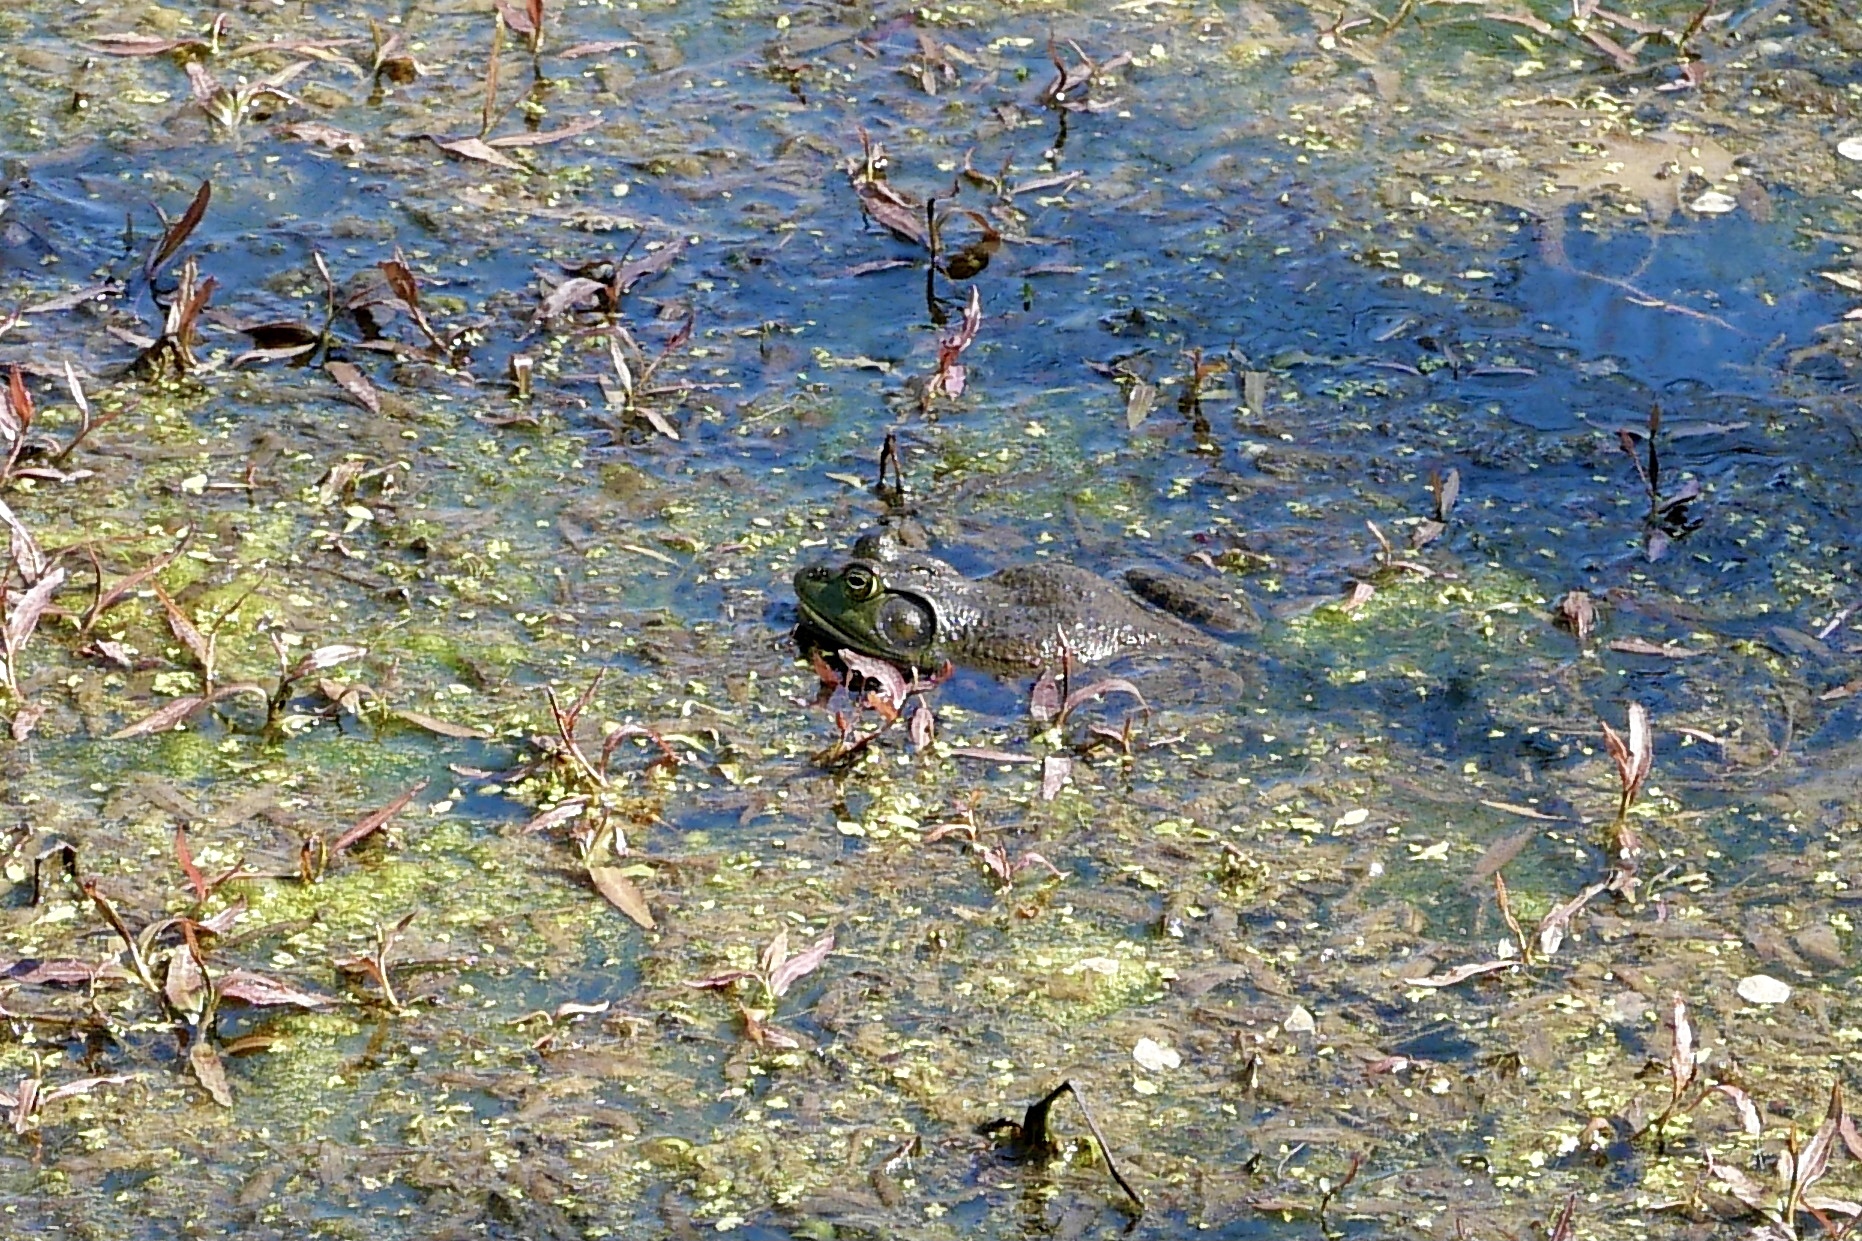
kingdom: Animalia
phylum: Chordata
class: Amphibia
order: Anura
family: Ranidae
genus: Lithobates
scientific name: Lithobates catesbeianus
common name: American bullfrog
